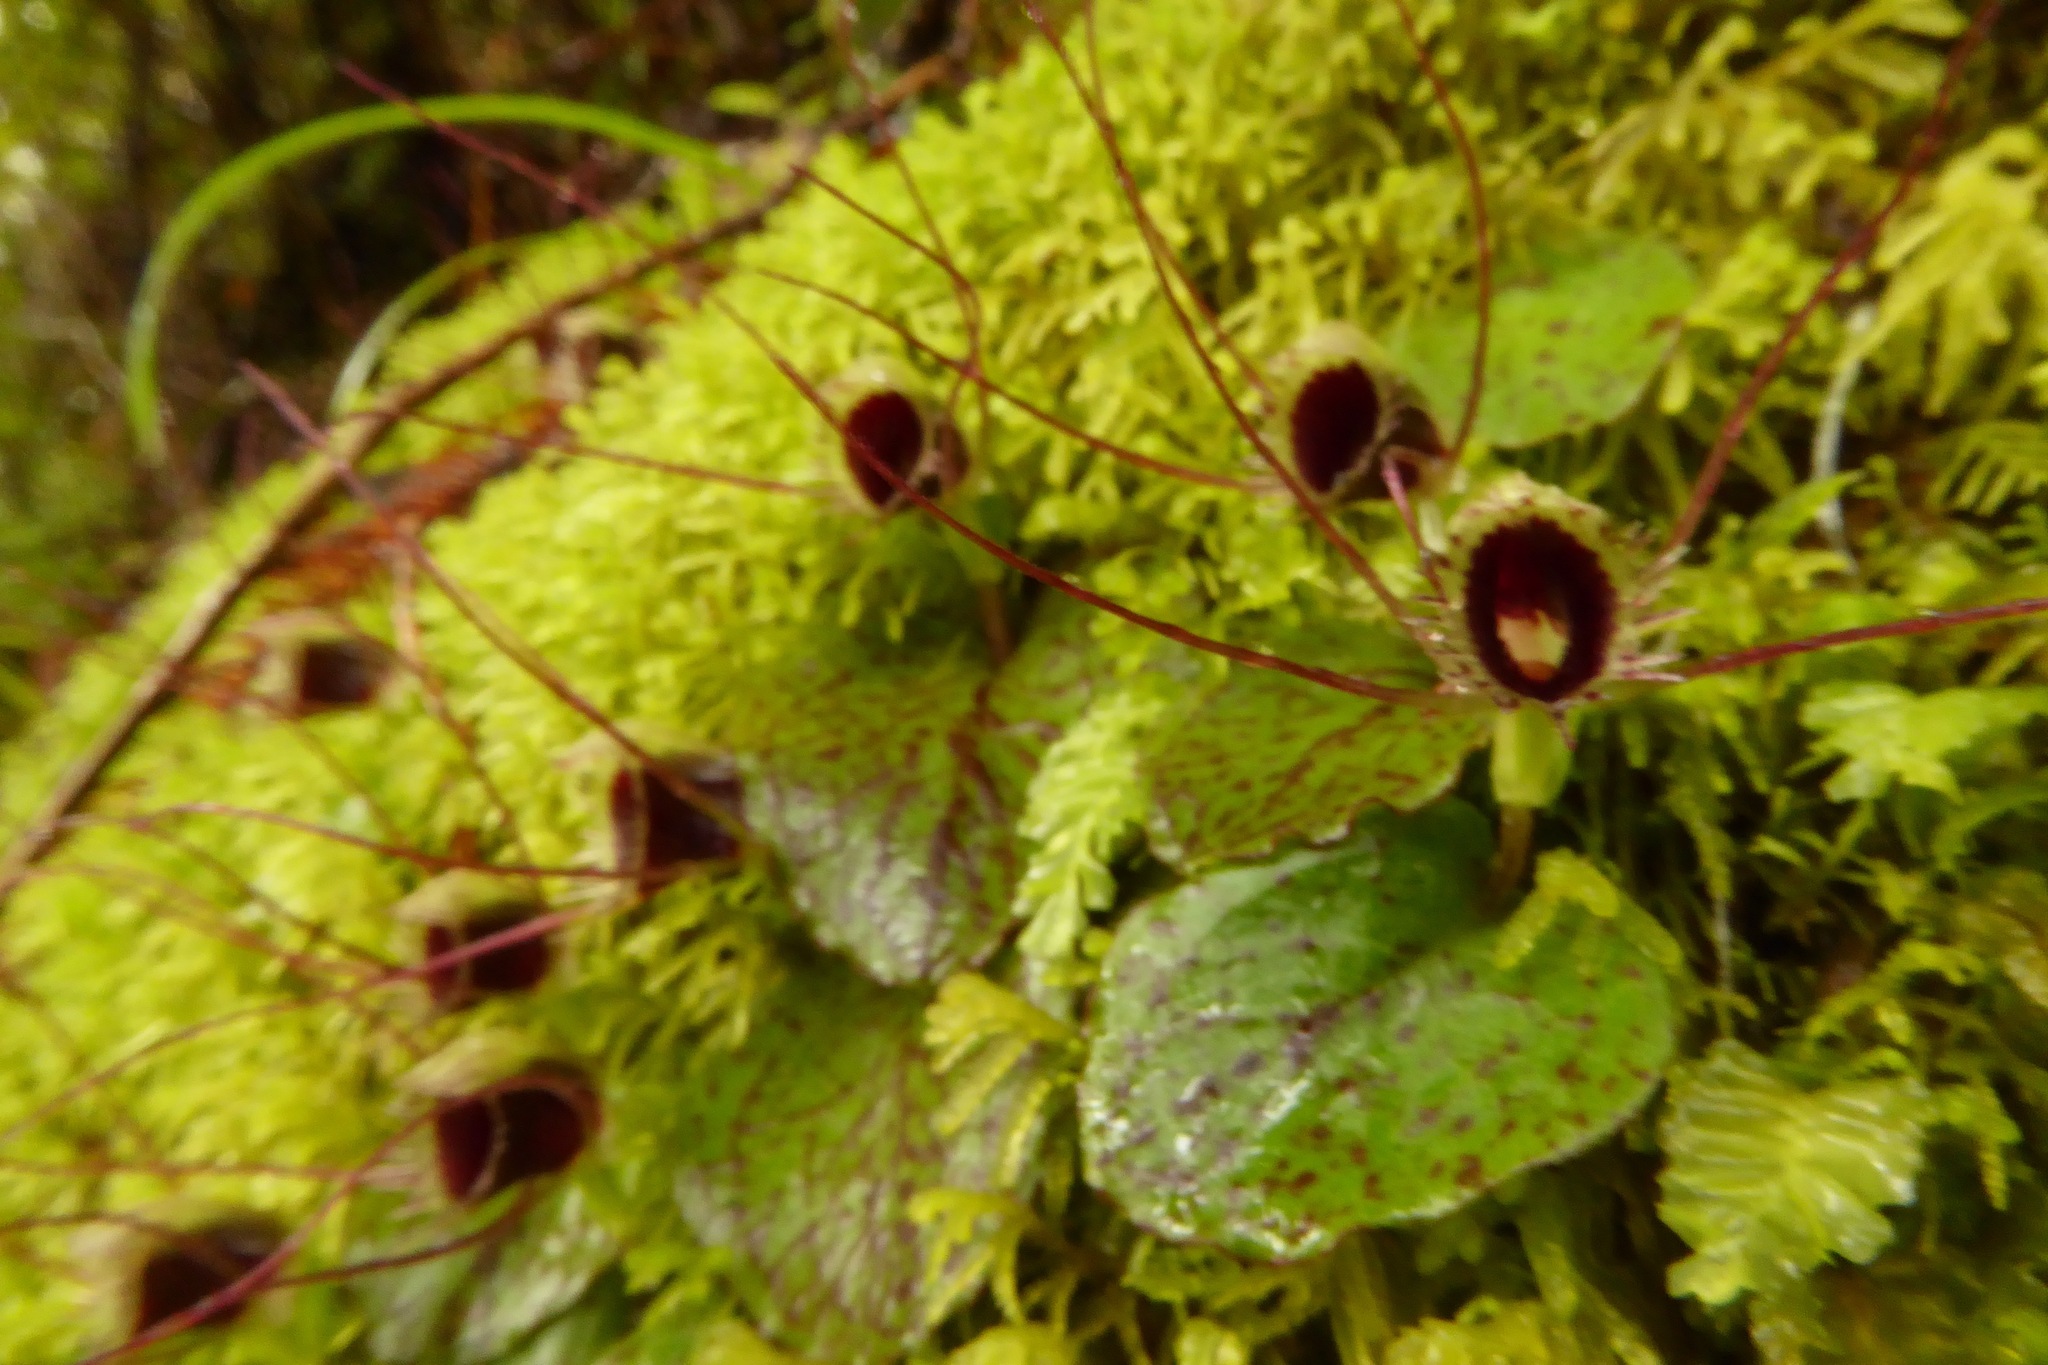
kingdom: Plantae
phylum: Tracheophyta
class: Liliopsida
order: Asparagales
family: Orchidaceae
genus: Corybas
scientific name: Corybas oblongus
